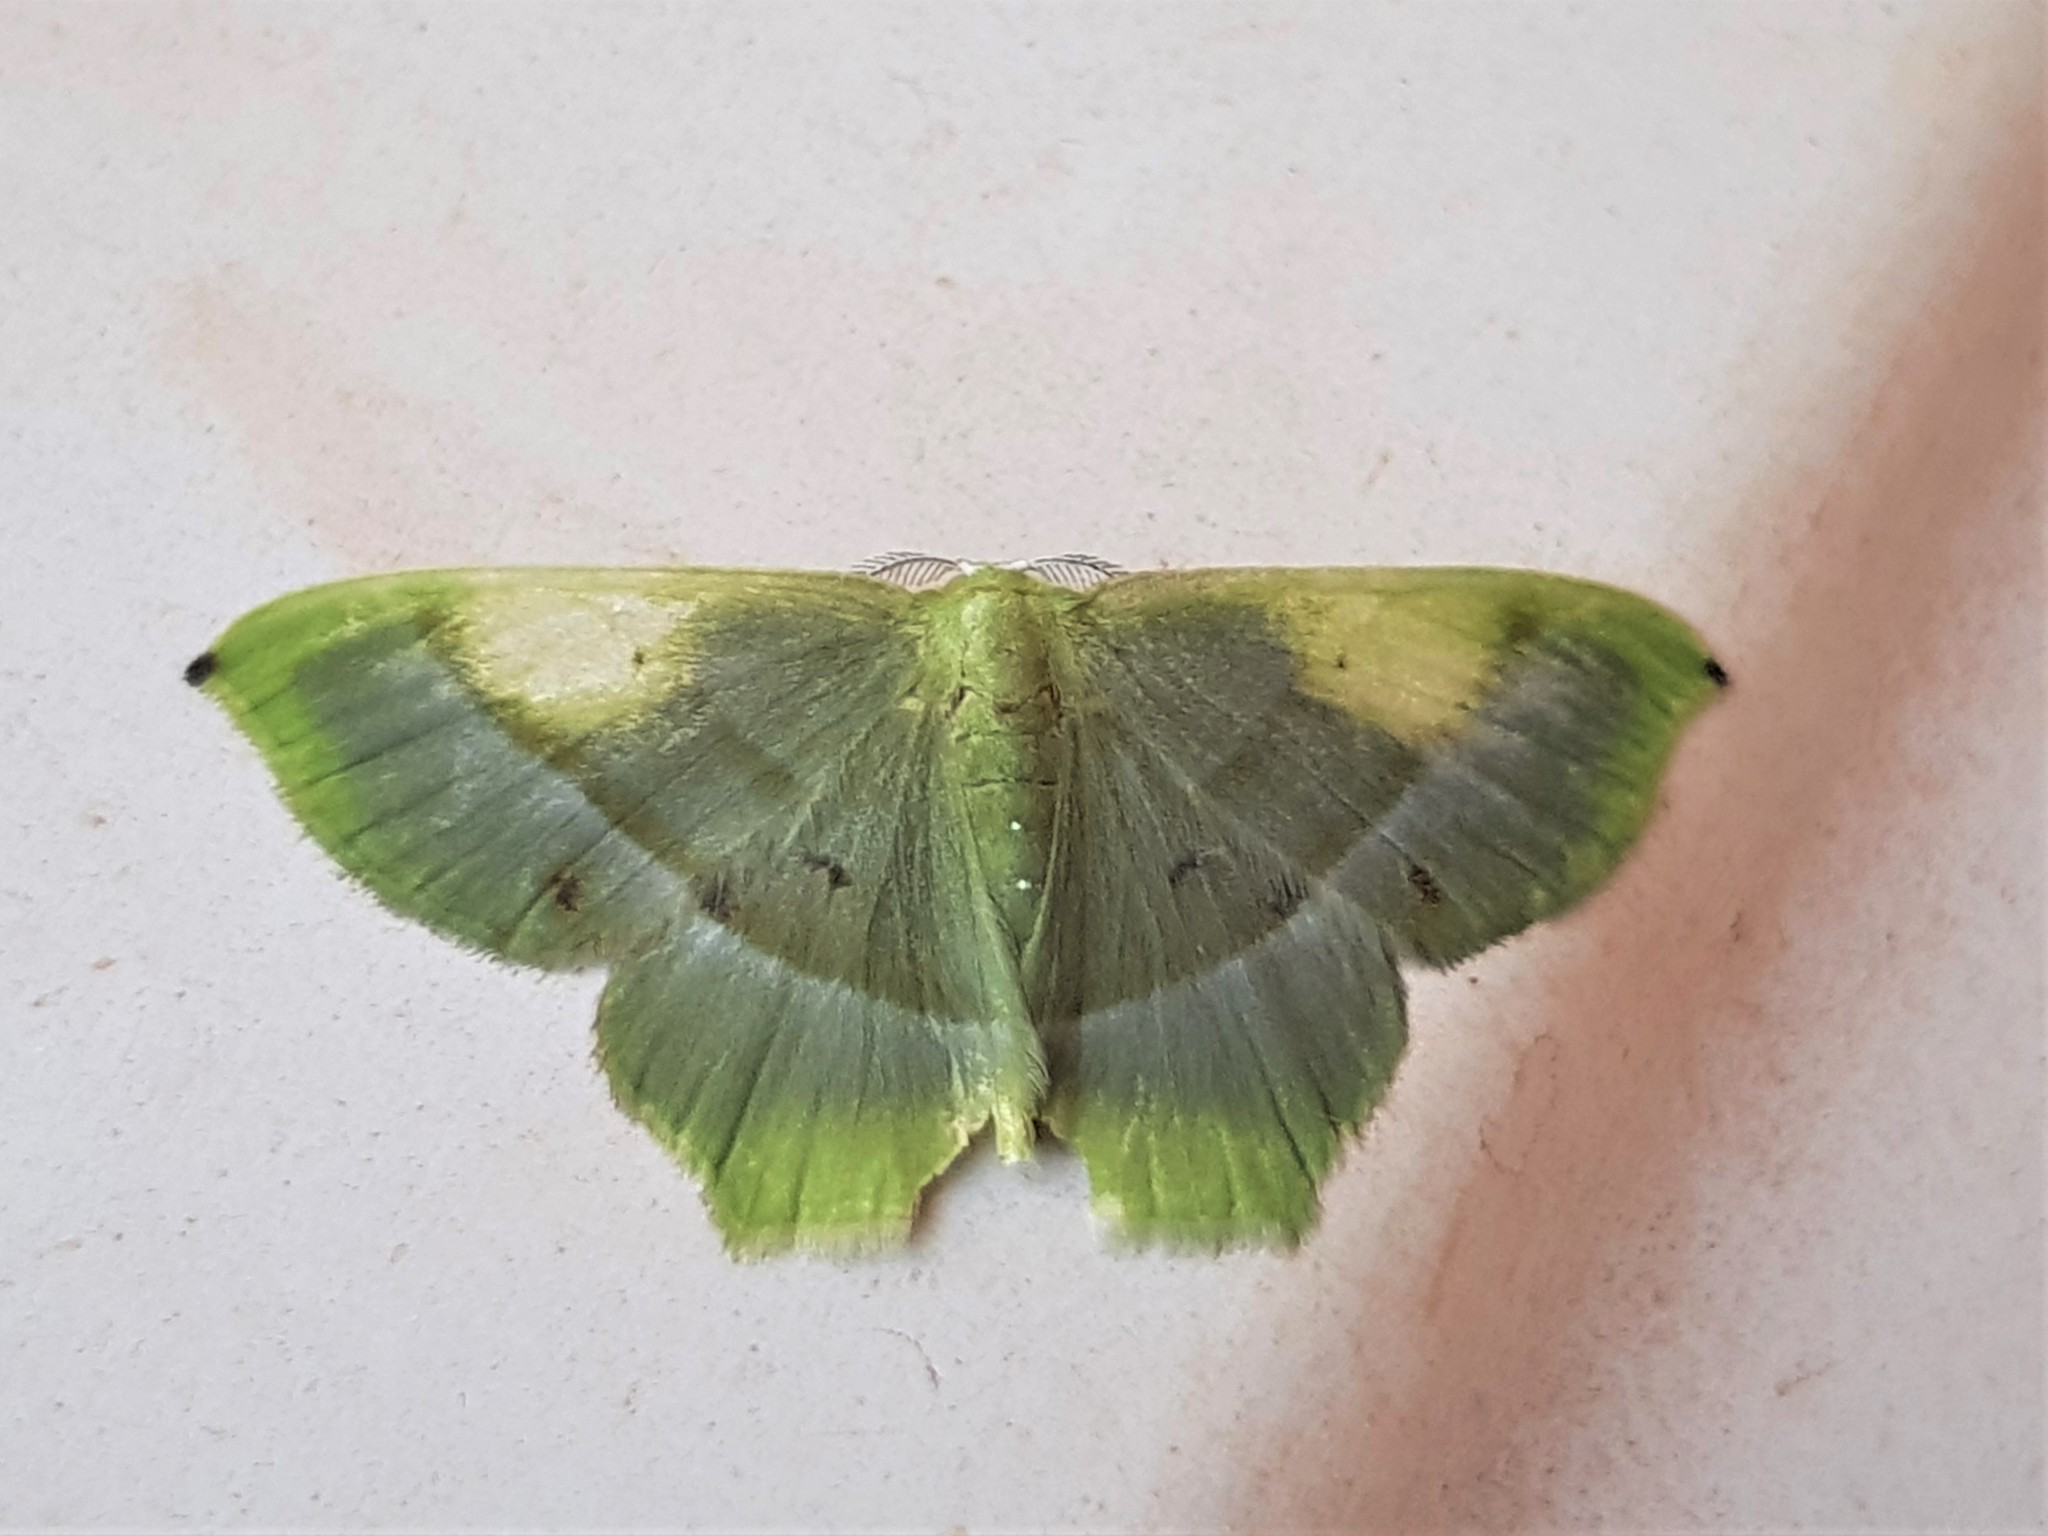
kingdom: Animalia
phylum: Arthropoda
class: Insecta
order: Lepidoptera
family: Geometridae
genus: Phrudocentra
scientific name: Phrudocentra obnubilata
